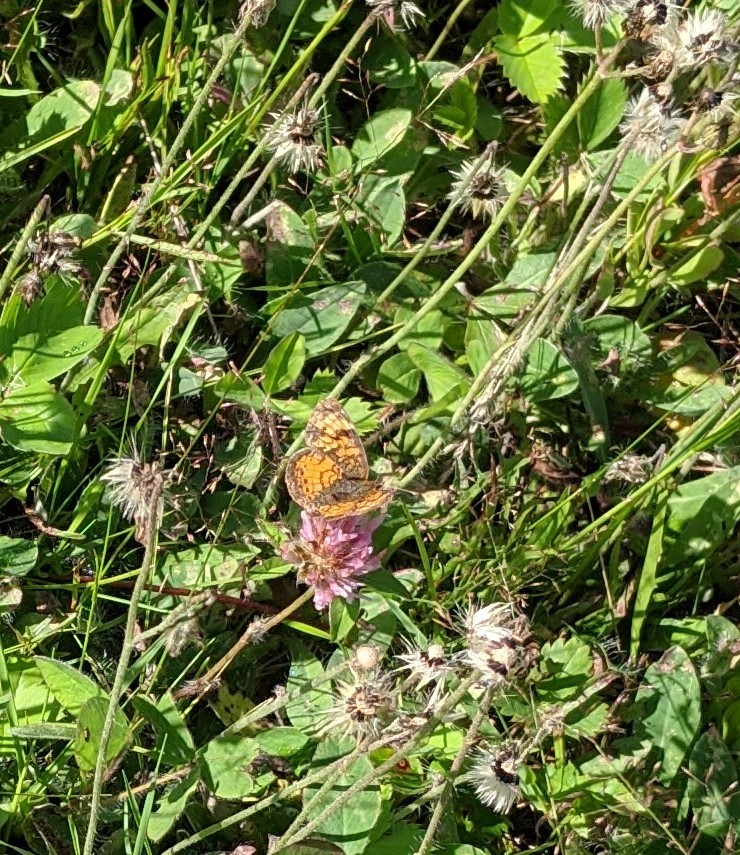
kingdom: Animalia
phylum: Arthropoda
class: Insecta
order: Lepidoptera
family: Nymphalidae
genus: Phyciodes
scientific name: Phyciodes tharos
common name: Pearl crescent
